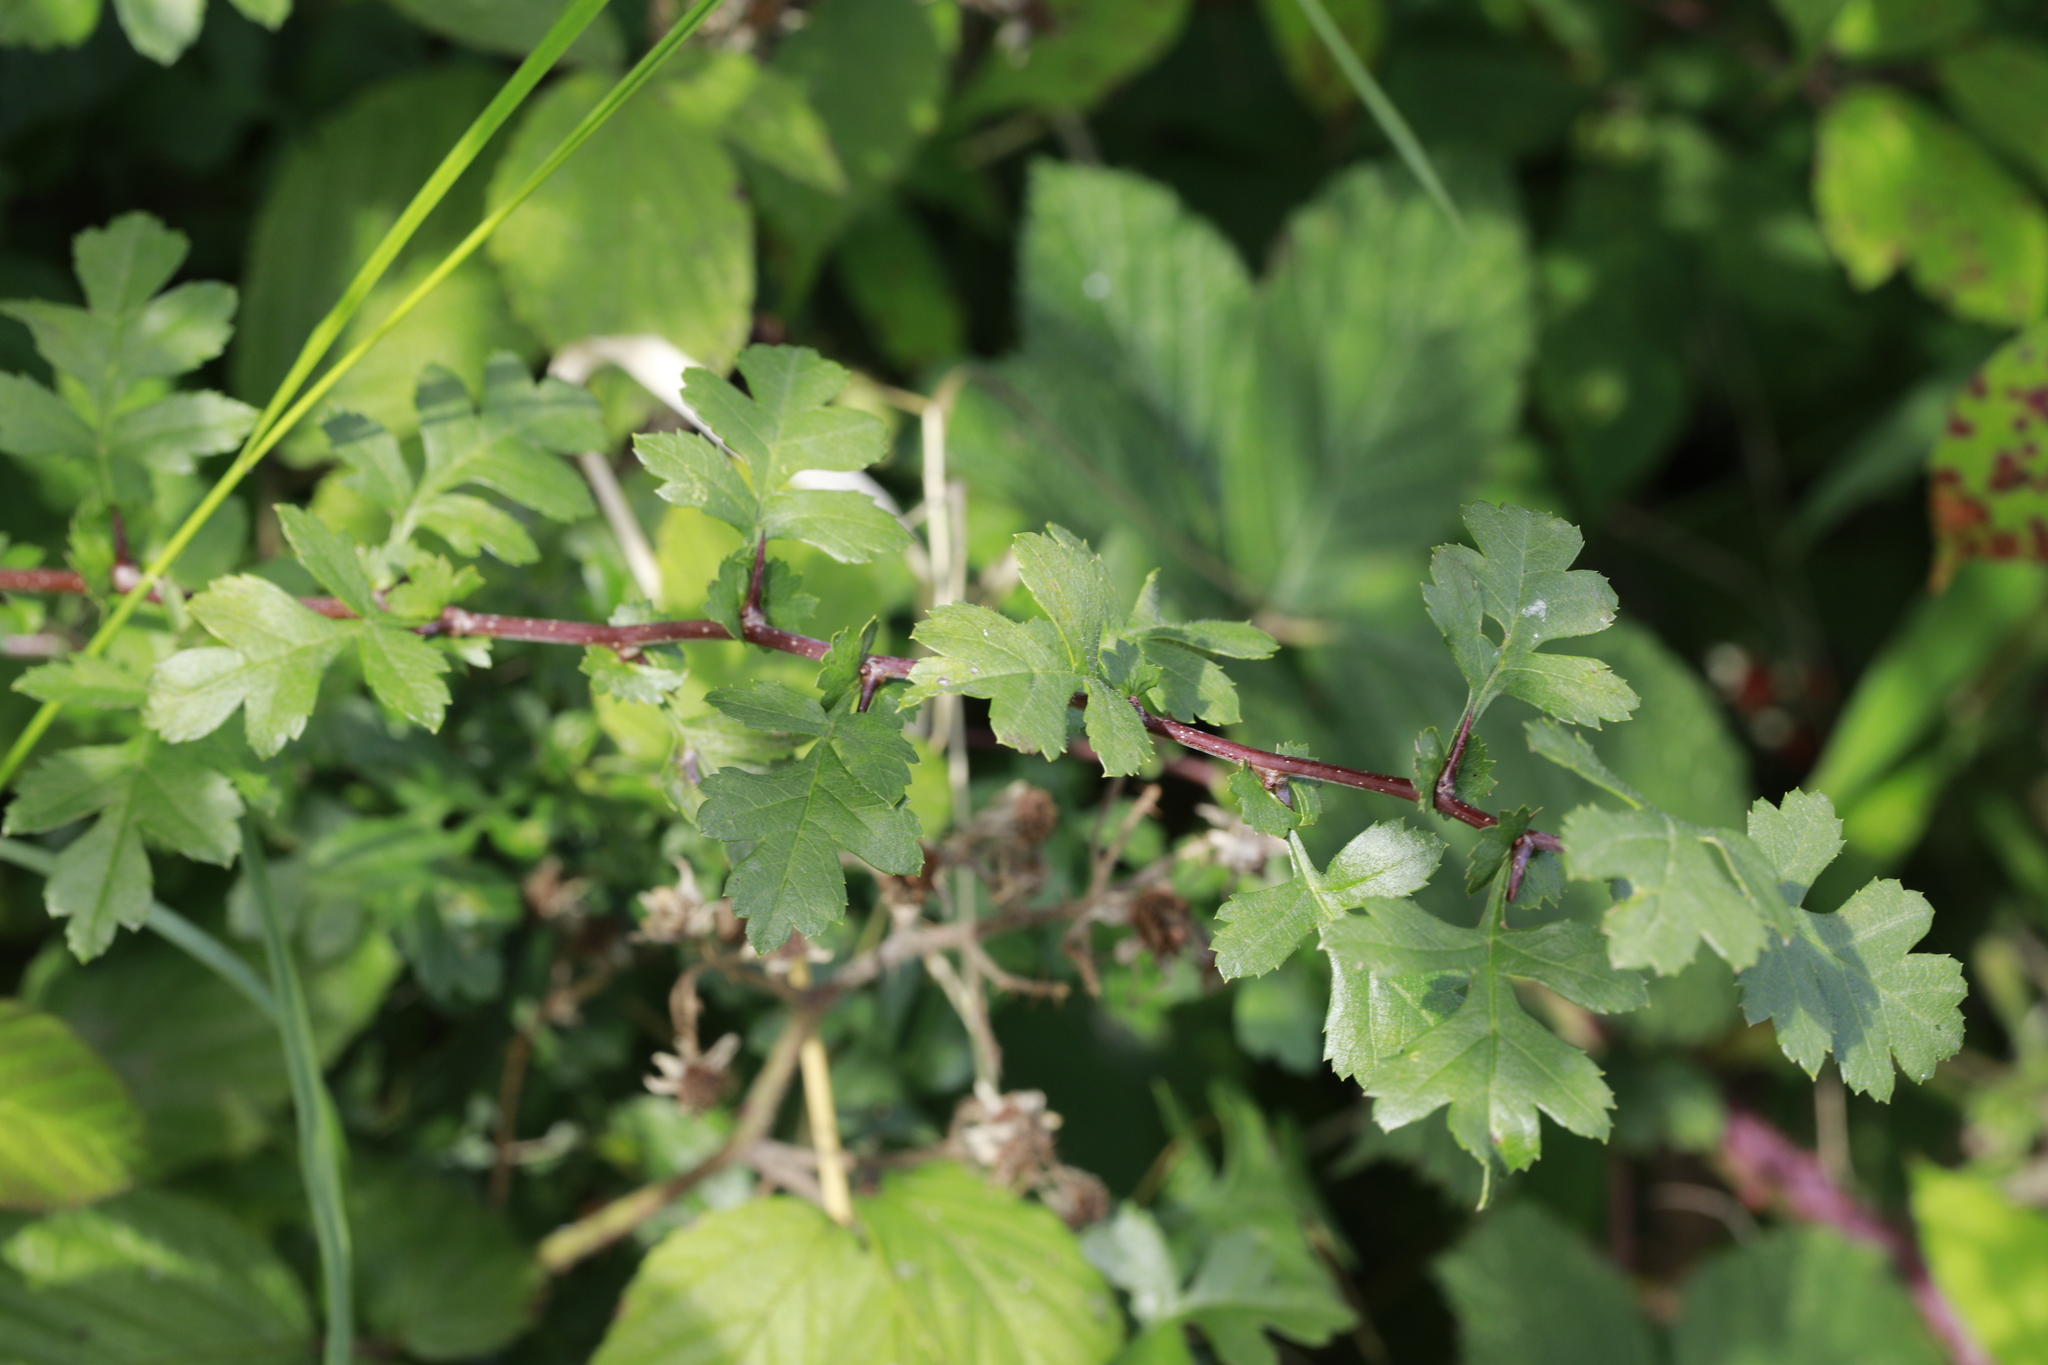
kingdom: Plantae
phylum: Tracheophyta
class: Magnoliopsida
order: Rosales
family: Rosaceae
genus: Crataegus
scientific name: Crataegus monogyna
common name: Hawthorn
